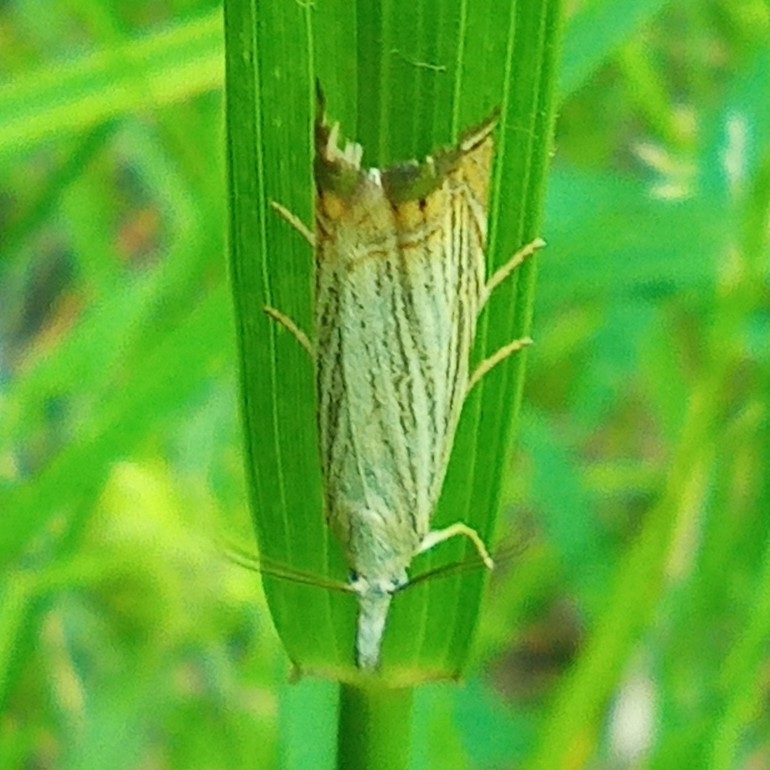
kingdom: Animalia
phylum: Arthropoda
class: Insecta
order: Lepidoptera
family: Crambidae
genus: Chrysoteuchia
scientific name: Chrysoteuchia culmella
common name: Garden grass-veneer
